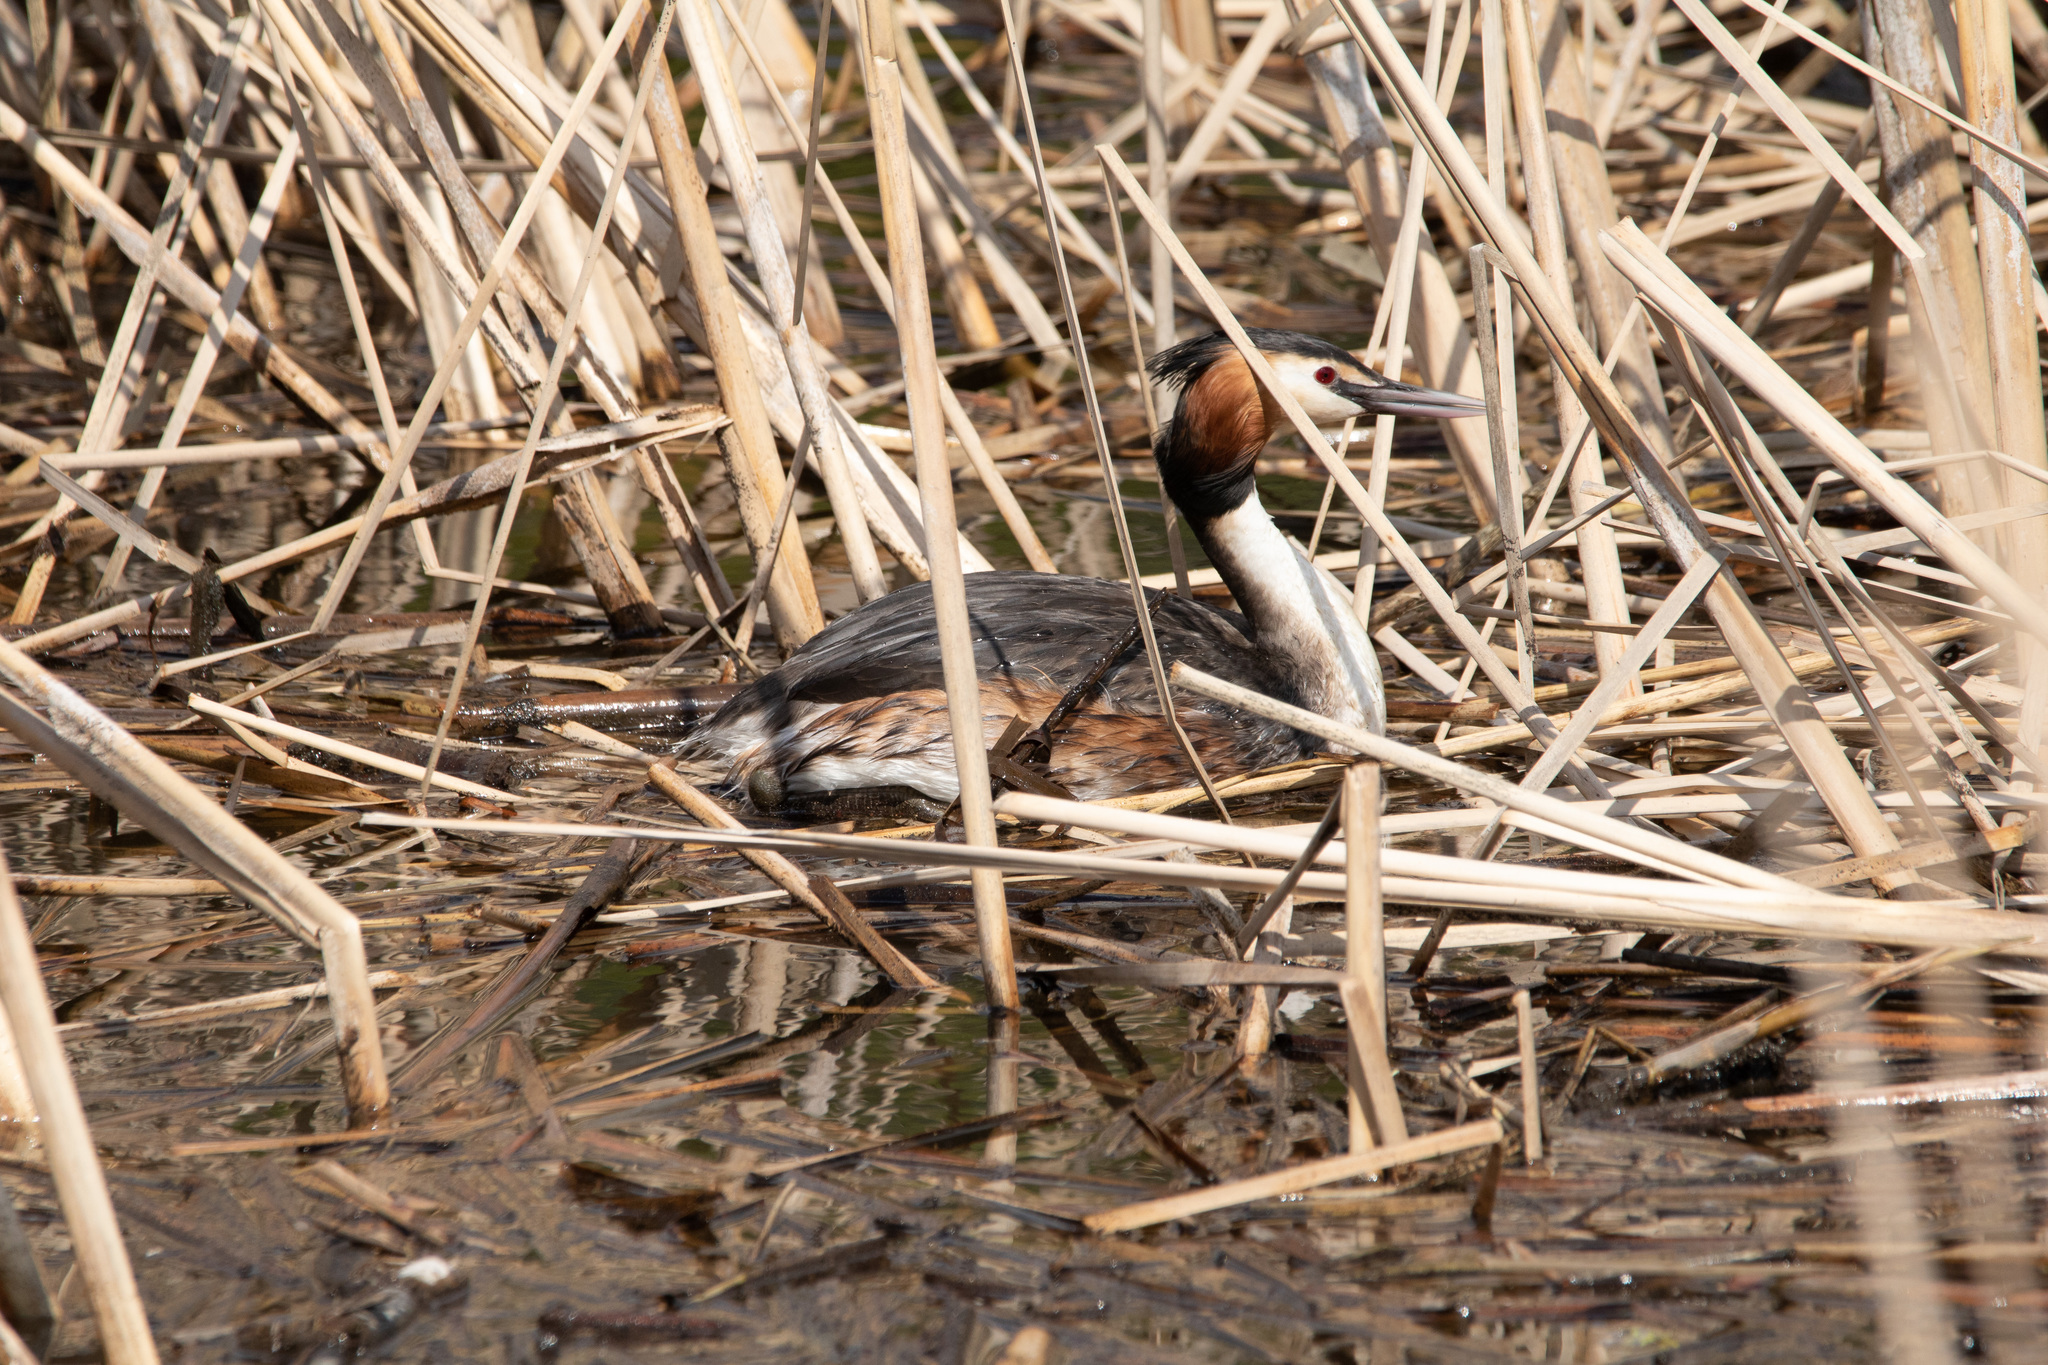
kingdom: Animalia
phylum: Chordata
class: Aves
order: Podicipediformes
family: Podicipedidae
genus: Podiceps
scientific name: Podiceps cristatus
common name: Great crested grebe
